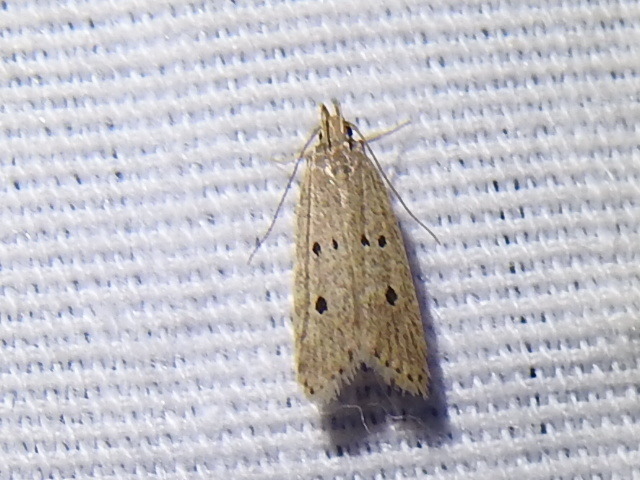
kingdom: Animalia
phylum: Arthropoda
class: Insecta
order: Lepidoptera
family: Gelechiidae
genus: Helcystogramma
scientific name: Helcystogramma melanocarpa
